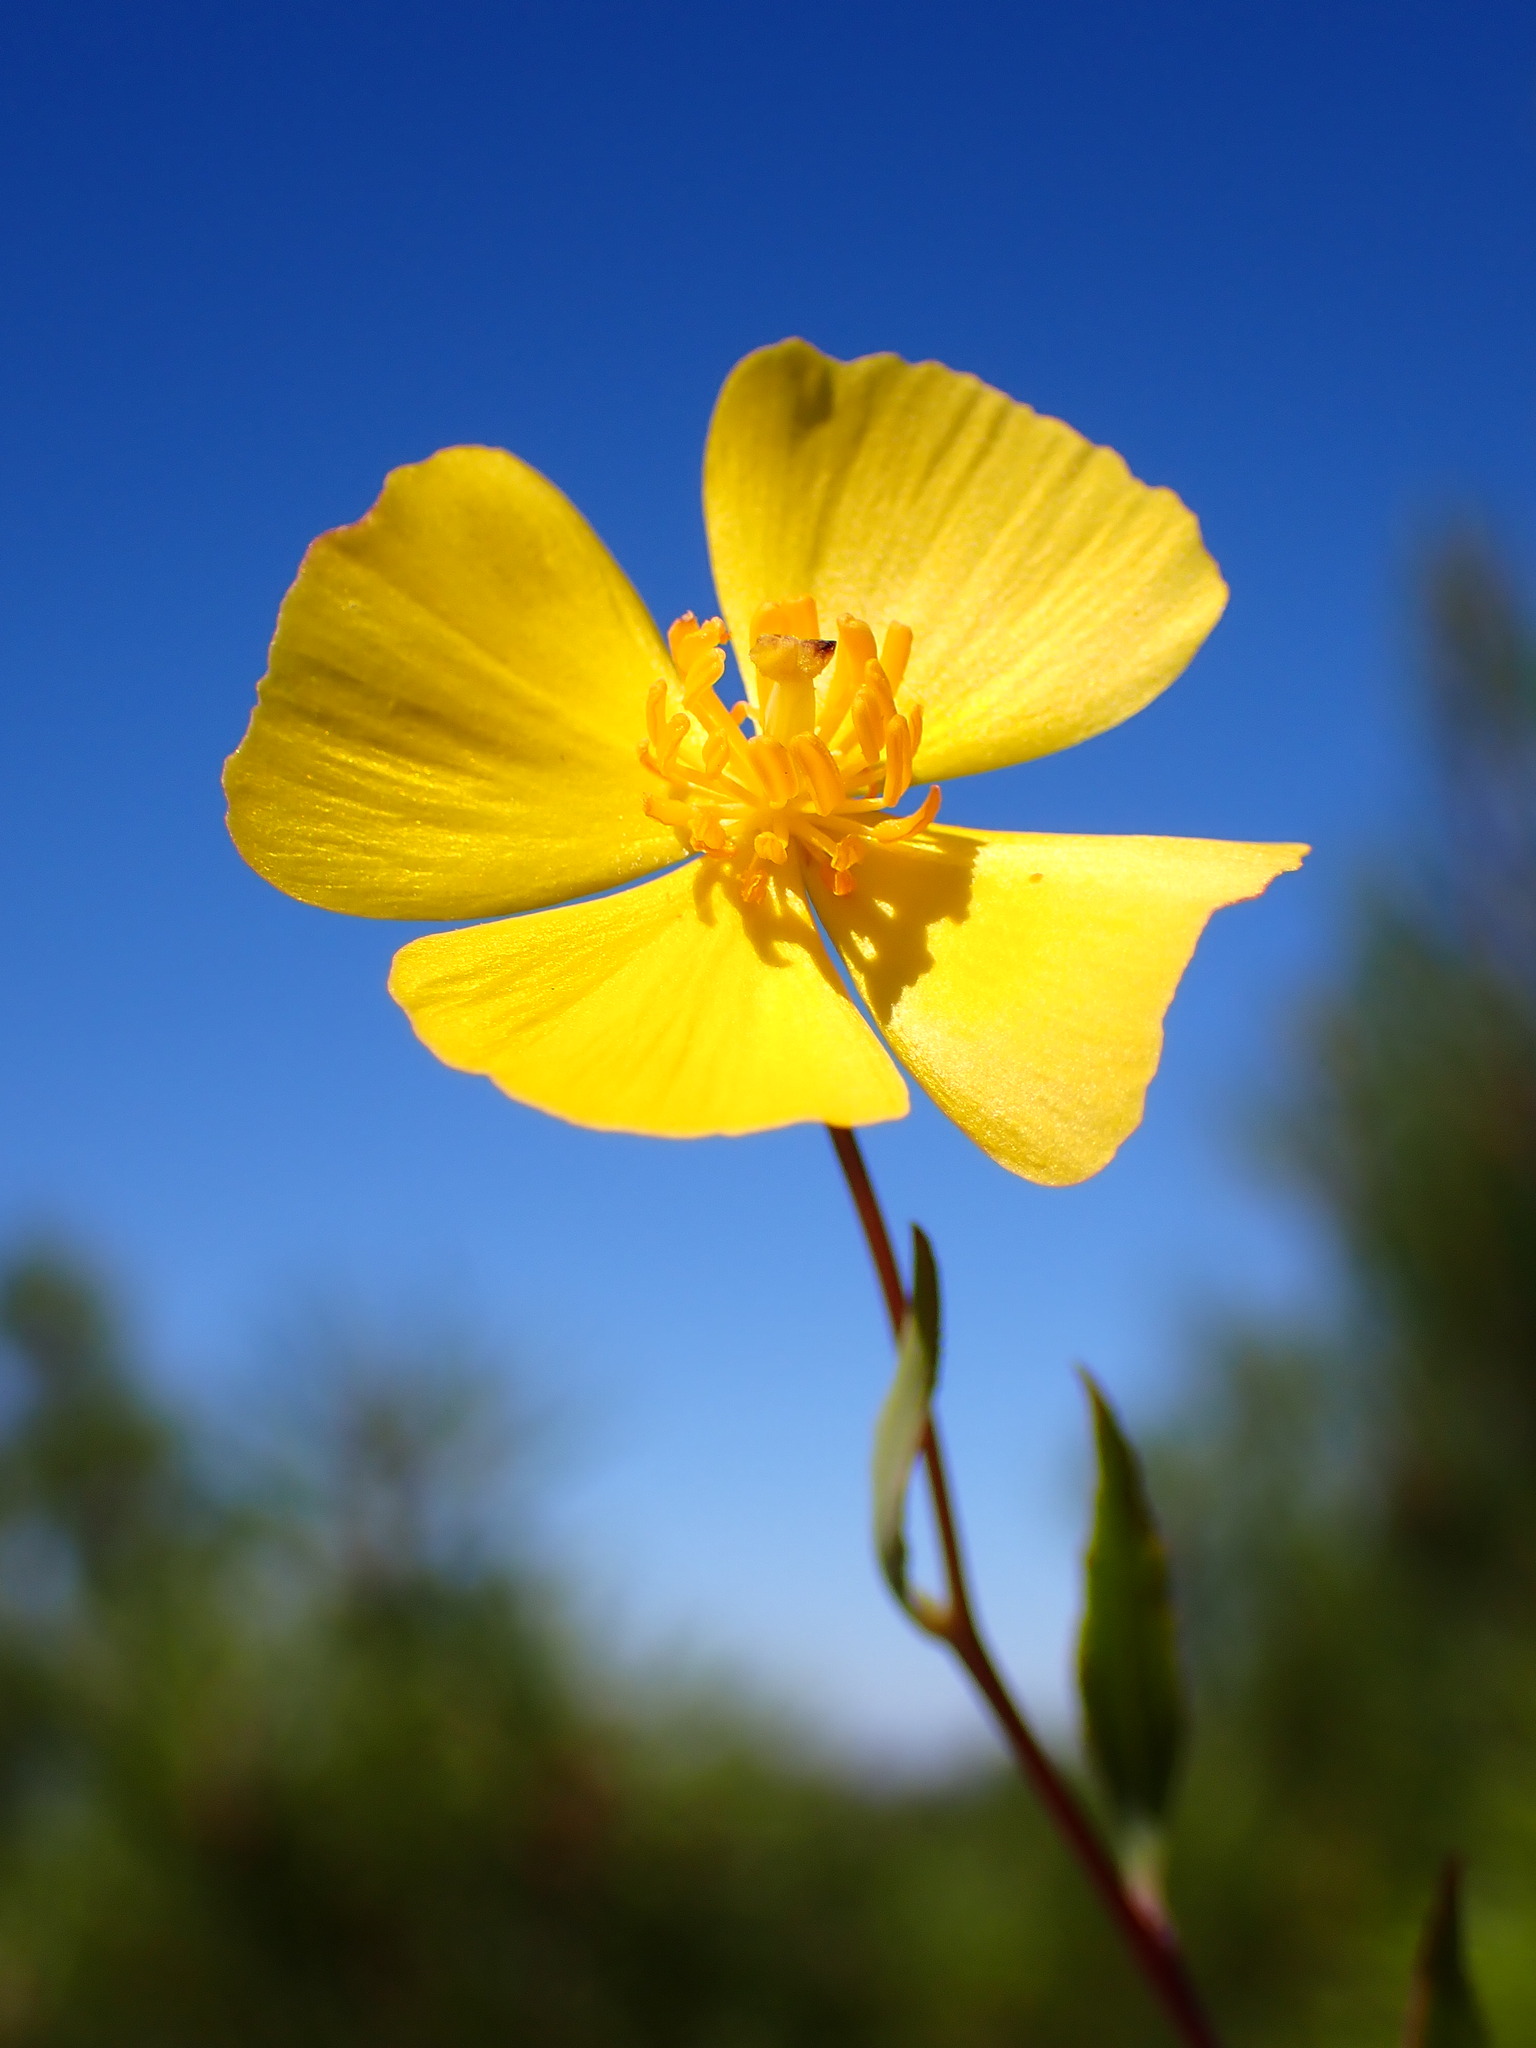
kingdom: Plantae
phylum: Tracheophyta
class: Magnoliopsida
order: Ranunculales
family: Papaveraceae
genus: Dendromecon
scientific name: Dendromecon rigida
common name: Tree poppy
